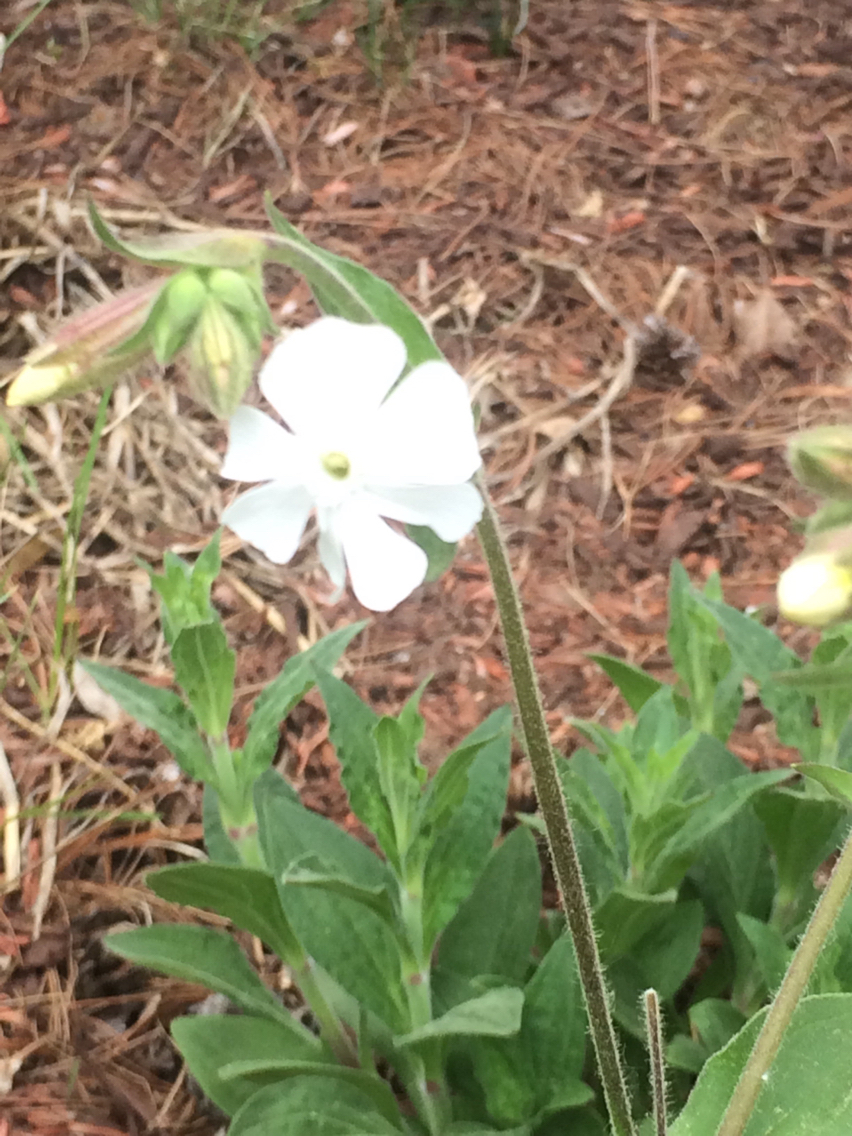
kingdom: Plantae
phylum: Tracheophyta
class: Magnoliopsida
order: Caryophyllales
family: Caryophyllaceae
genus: Silene
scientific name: Silene latifolia
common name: White campion
